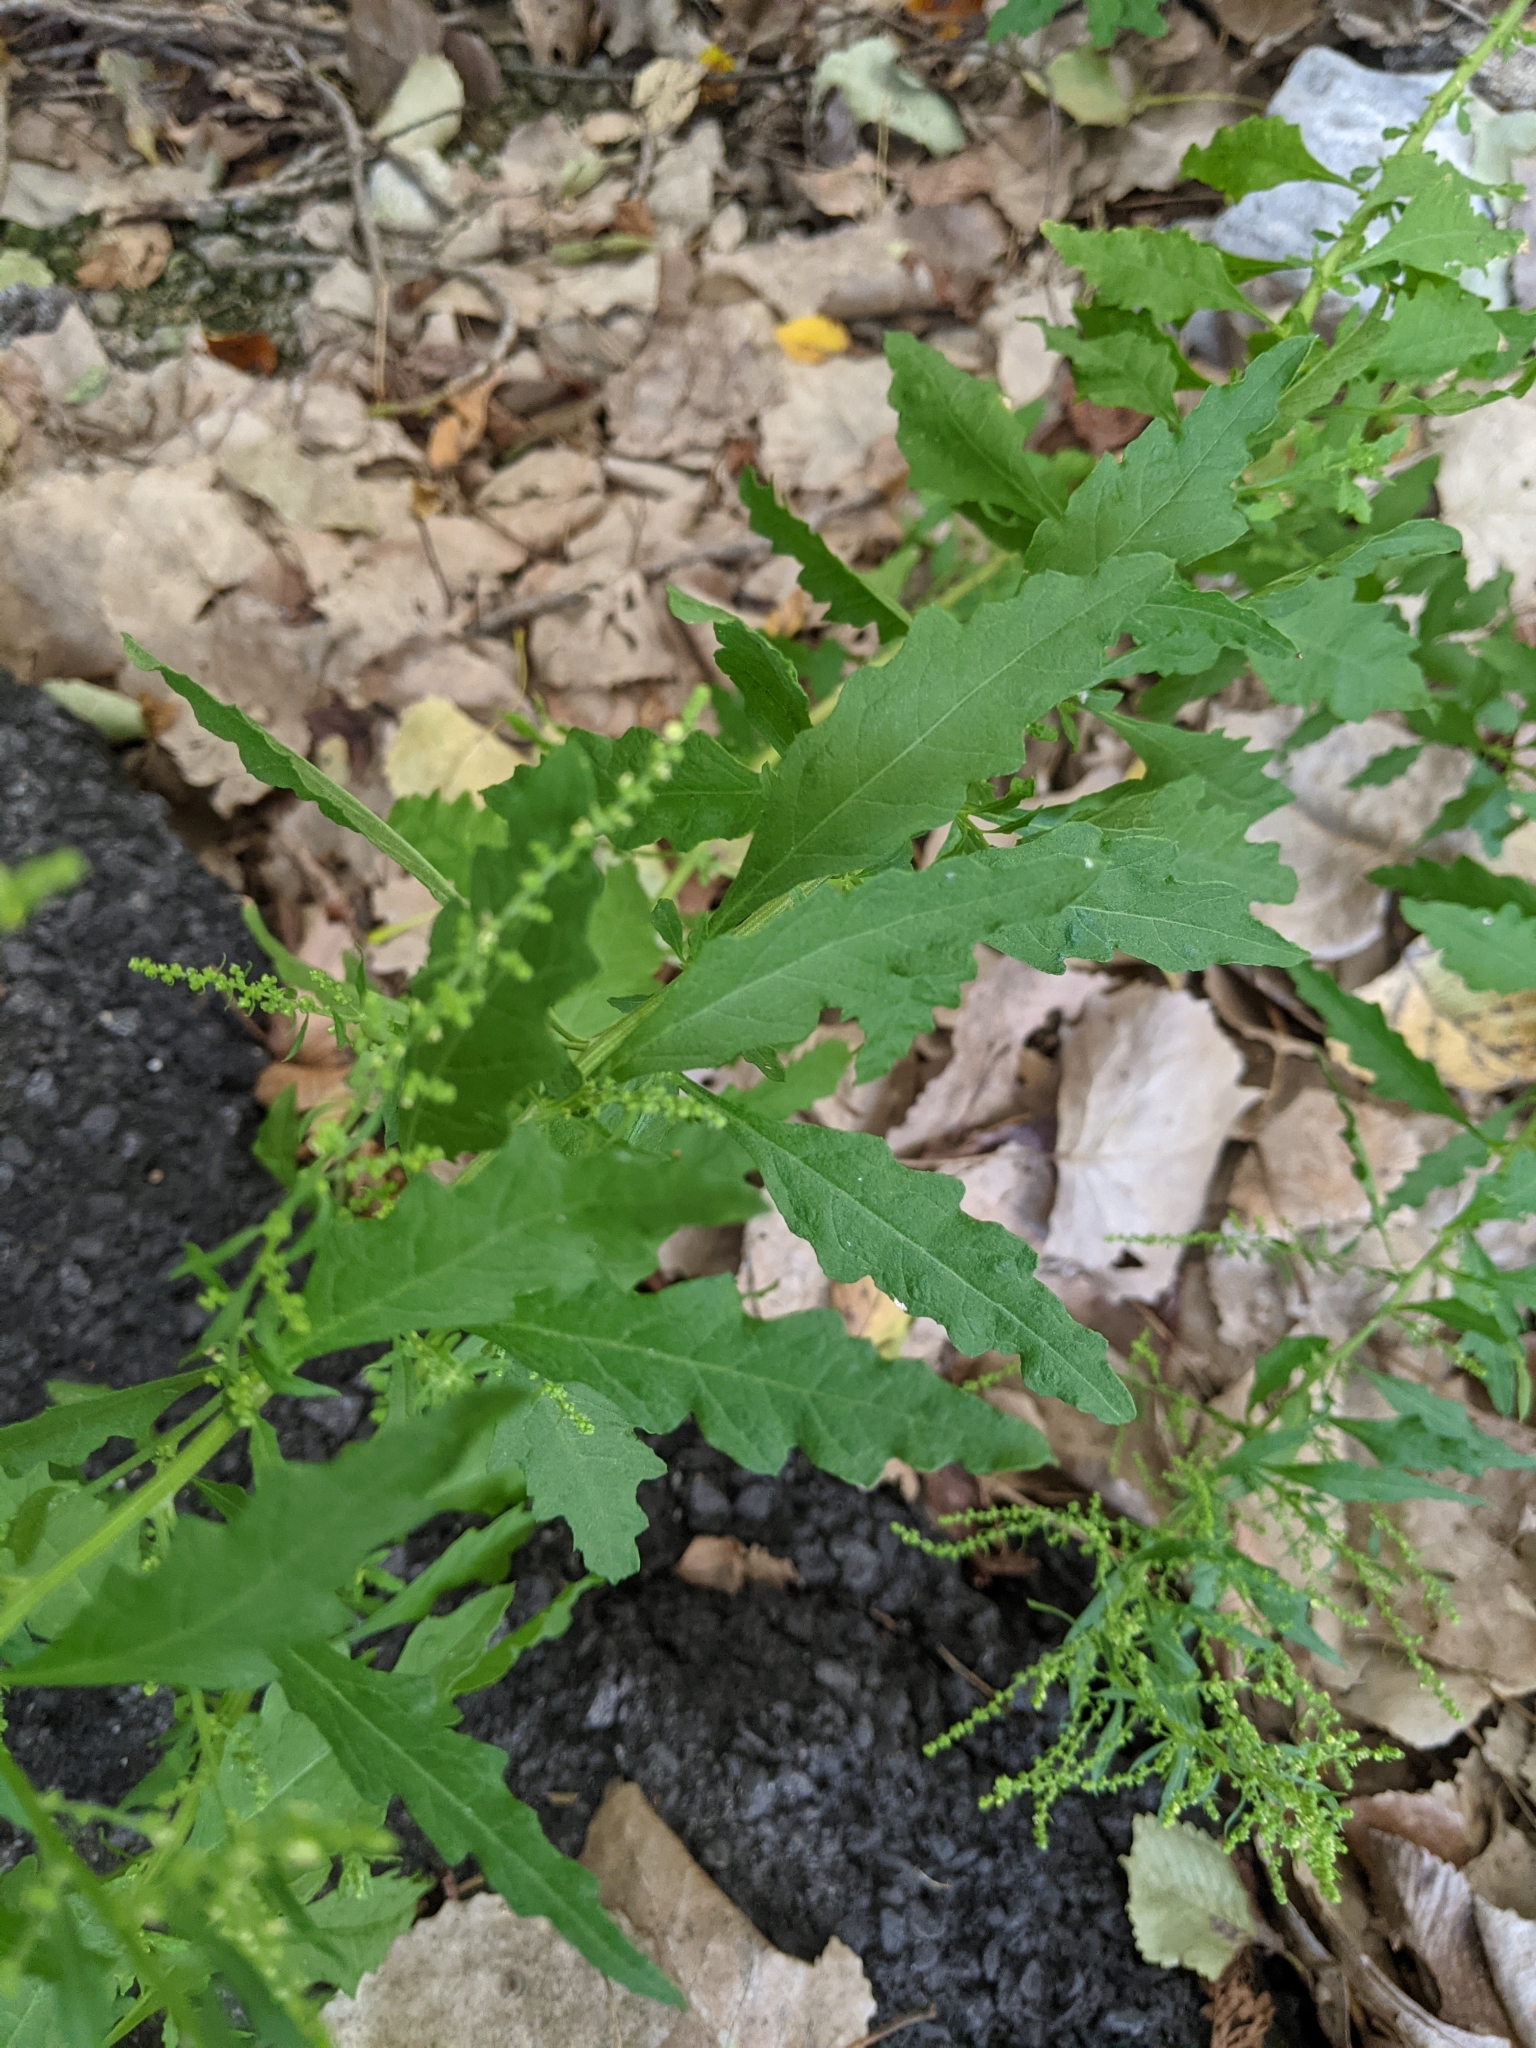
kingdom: Plantae
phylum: Tracheophyta
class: Magnoliopsida
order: Caryophyllales
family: Amaranthaceae
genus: Dysphania
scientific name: Dysphania ambrosioides
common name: Wormseed
